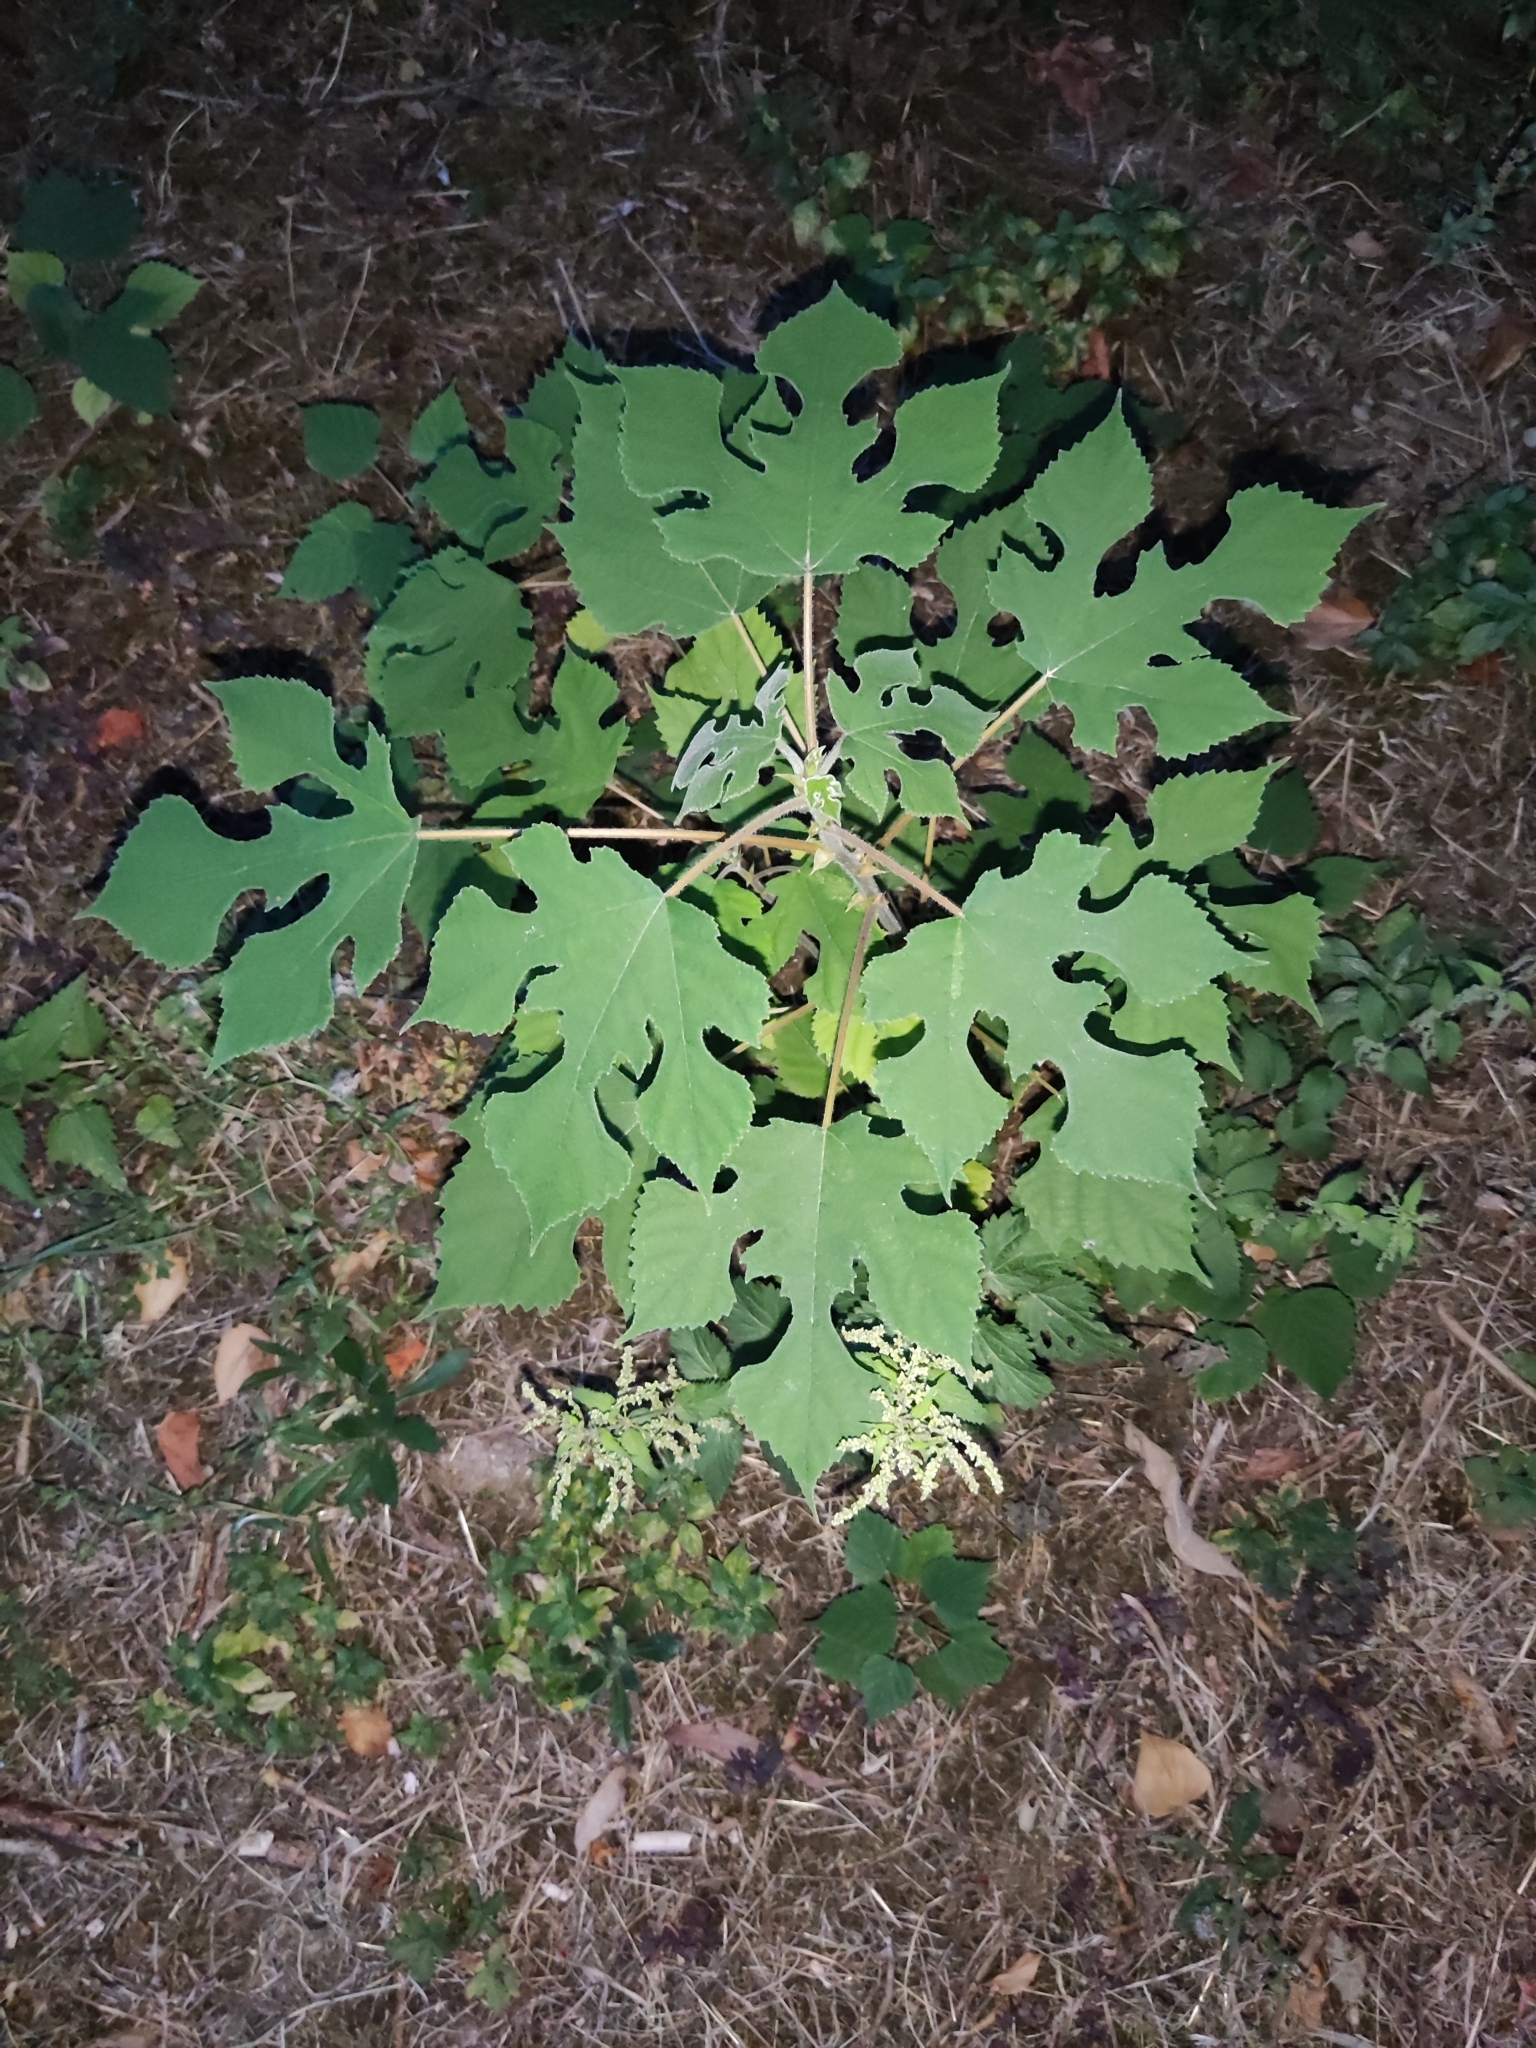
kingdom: Plantae
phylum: Tracheophyta
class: Magnoliopsida
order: Rosales
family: Moraceae
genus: Broussonetia
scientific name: Broussonetia papyrifera
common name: Paper mulberry
